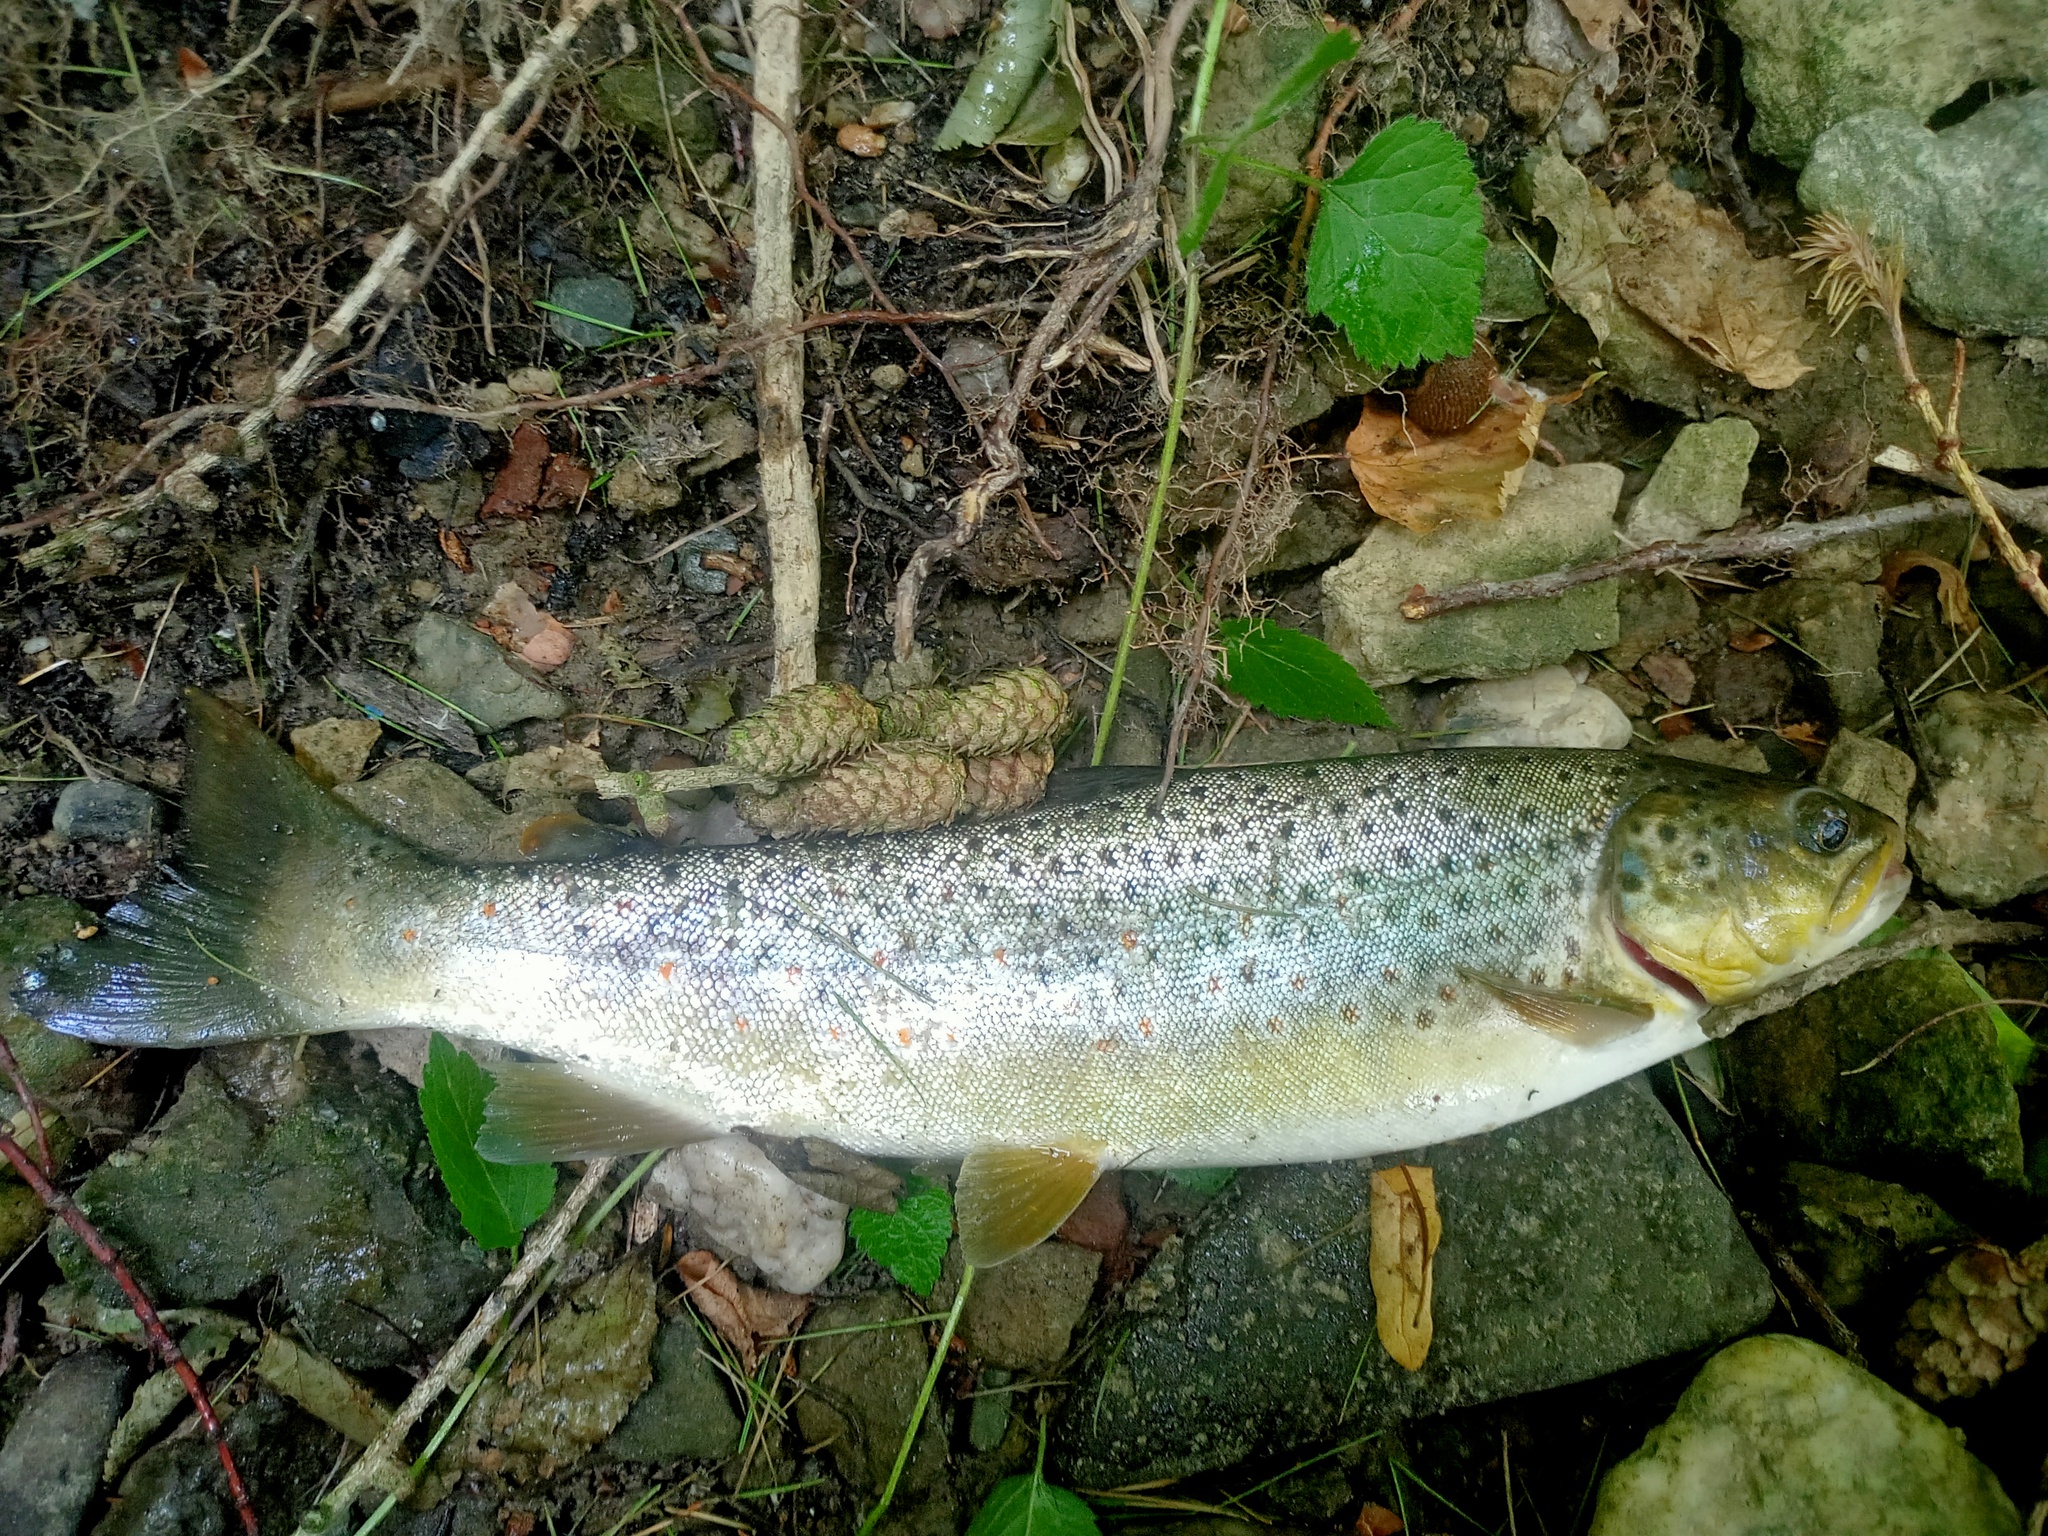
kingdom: Animalia
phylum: Chordata
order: Salmoniformes
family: Salmonidae
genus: Salmo
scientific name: Salmo trutta
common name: Brown trout
